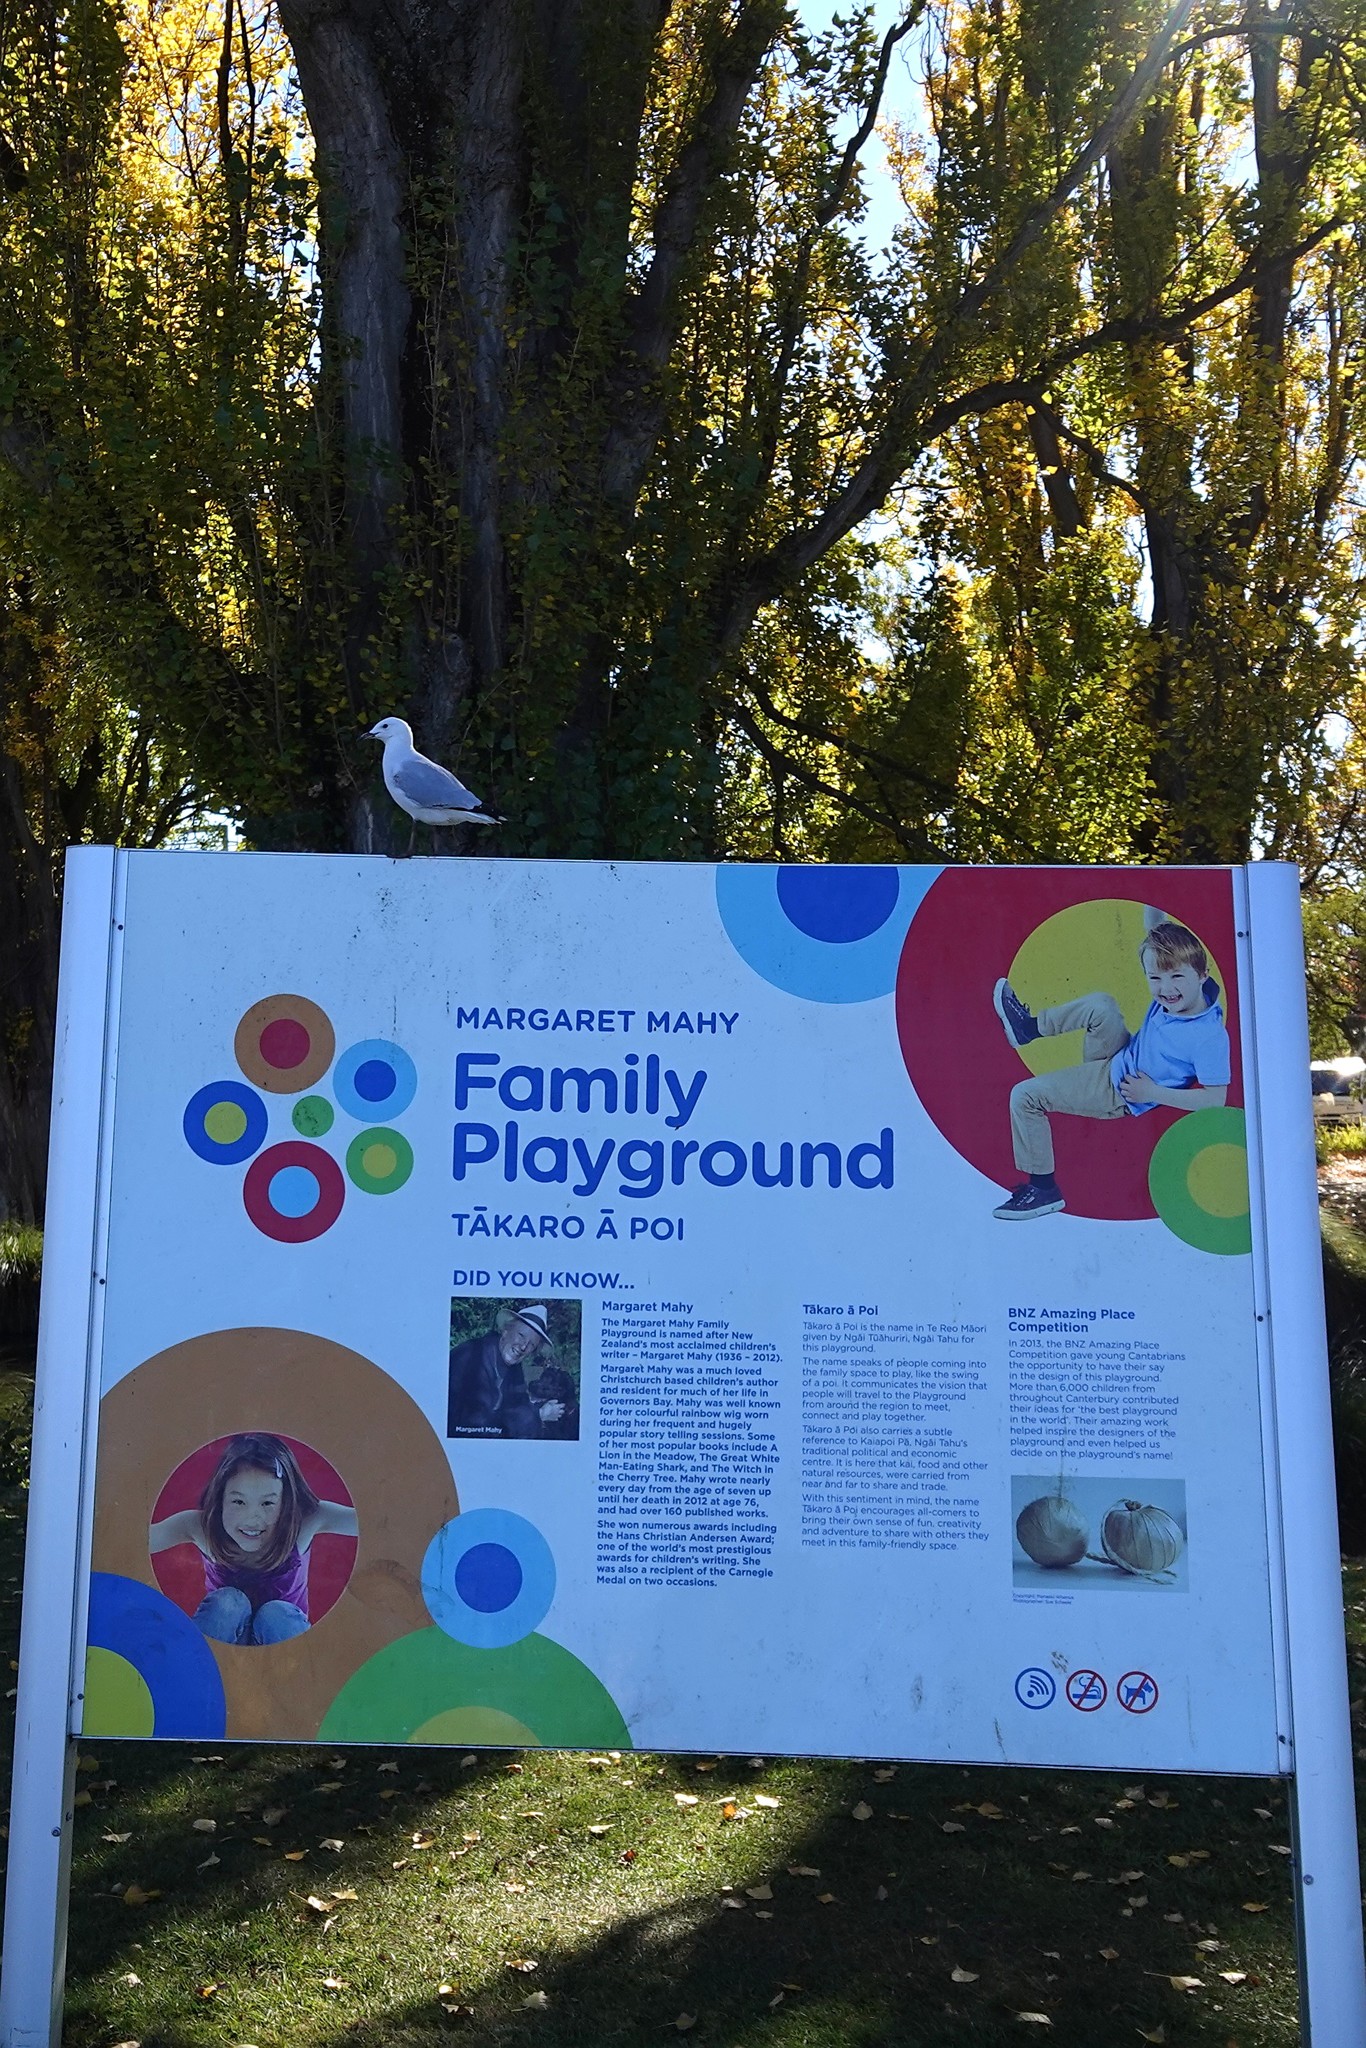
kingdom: Animalia
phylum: Chordata
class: Aves
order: Charadriiformes
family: Laridae
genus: Chroicocephalus
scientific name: Chroicocephalus novaehollandiae
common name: Silver gull
